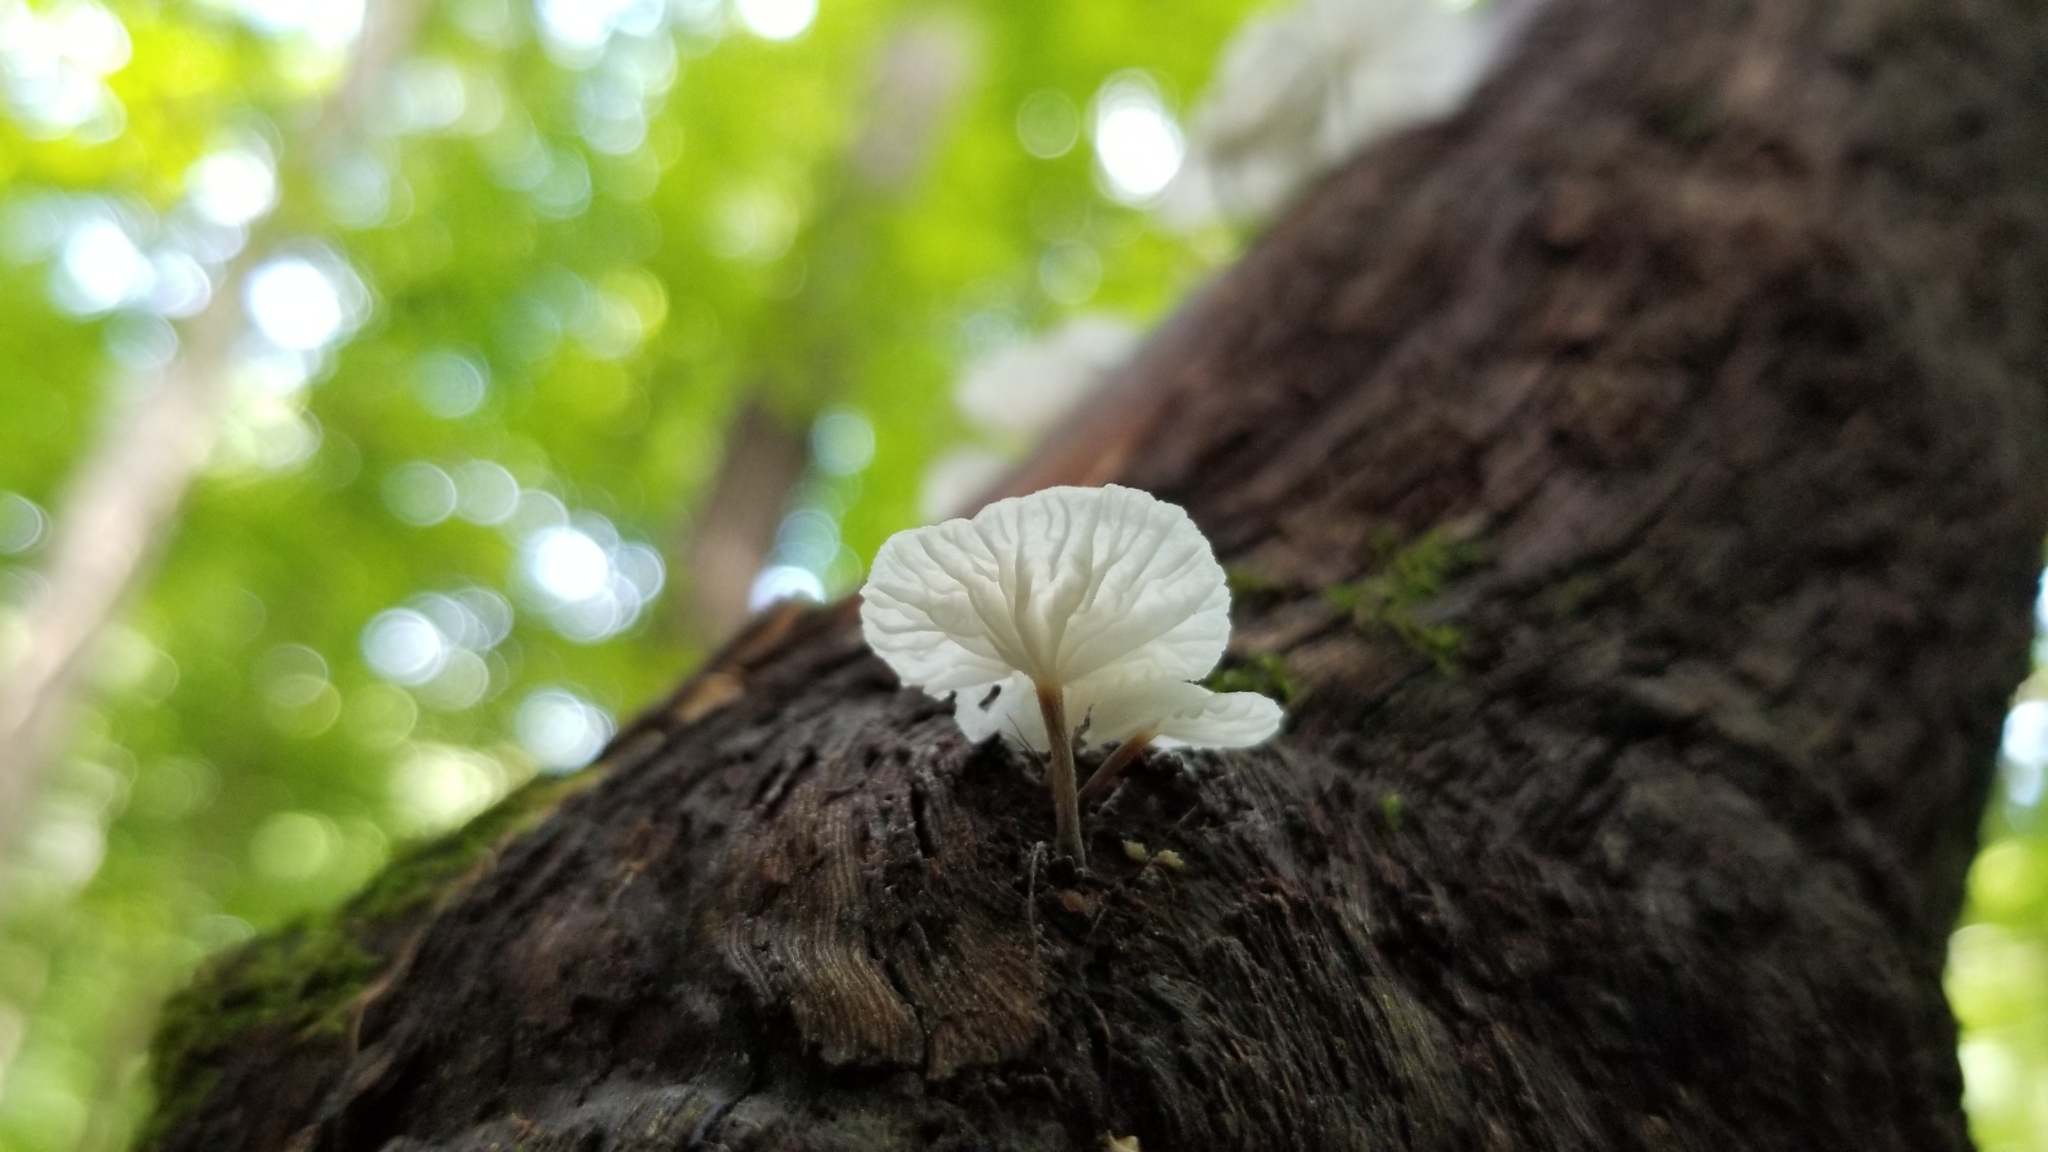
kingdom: Fungi
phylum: Basidiomycota
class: Agaricomycetes
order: Agaricales
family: Omphalotaceae
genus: Marasmiellus
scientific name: Marasmiellus candidus
